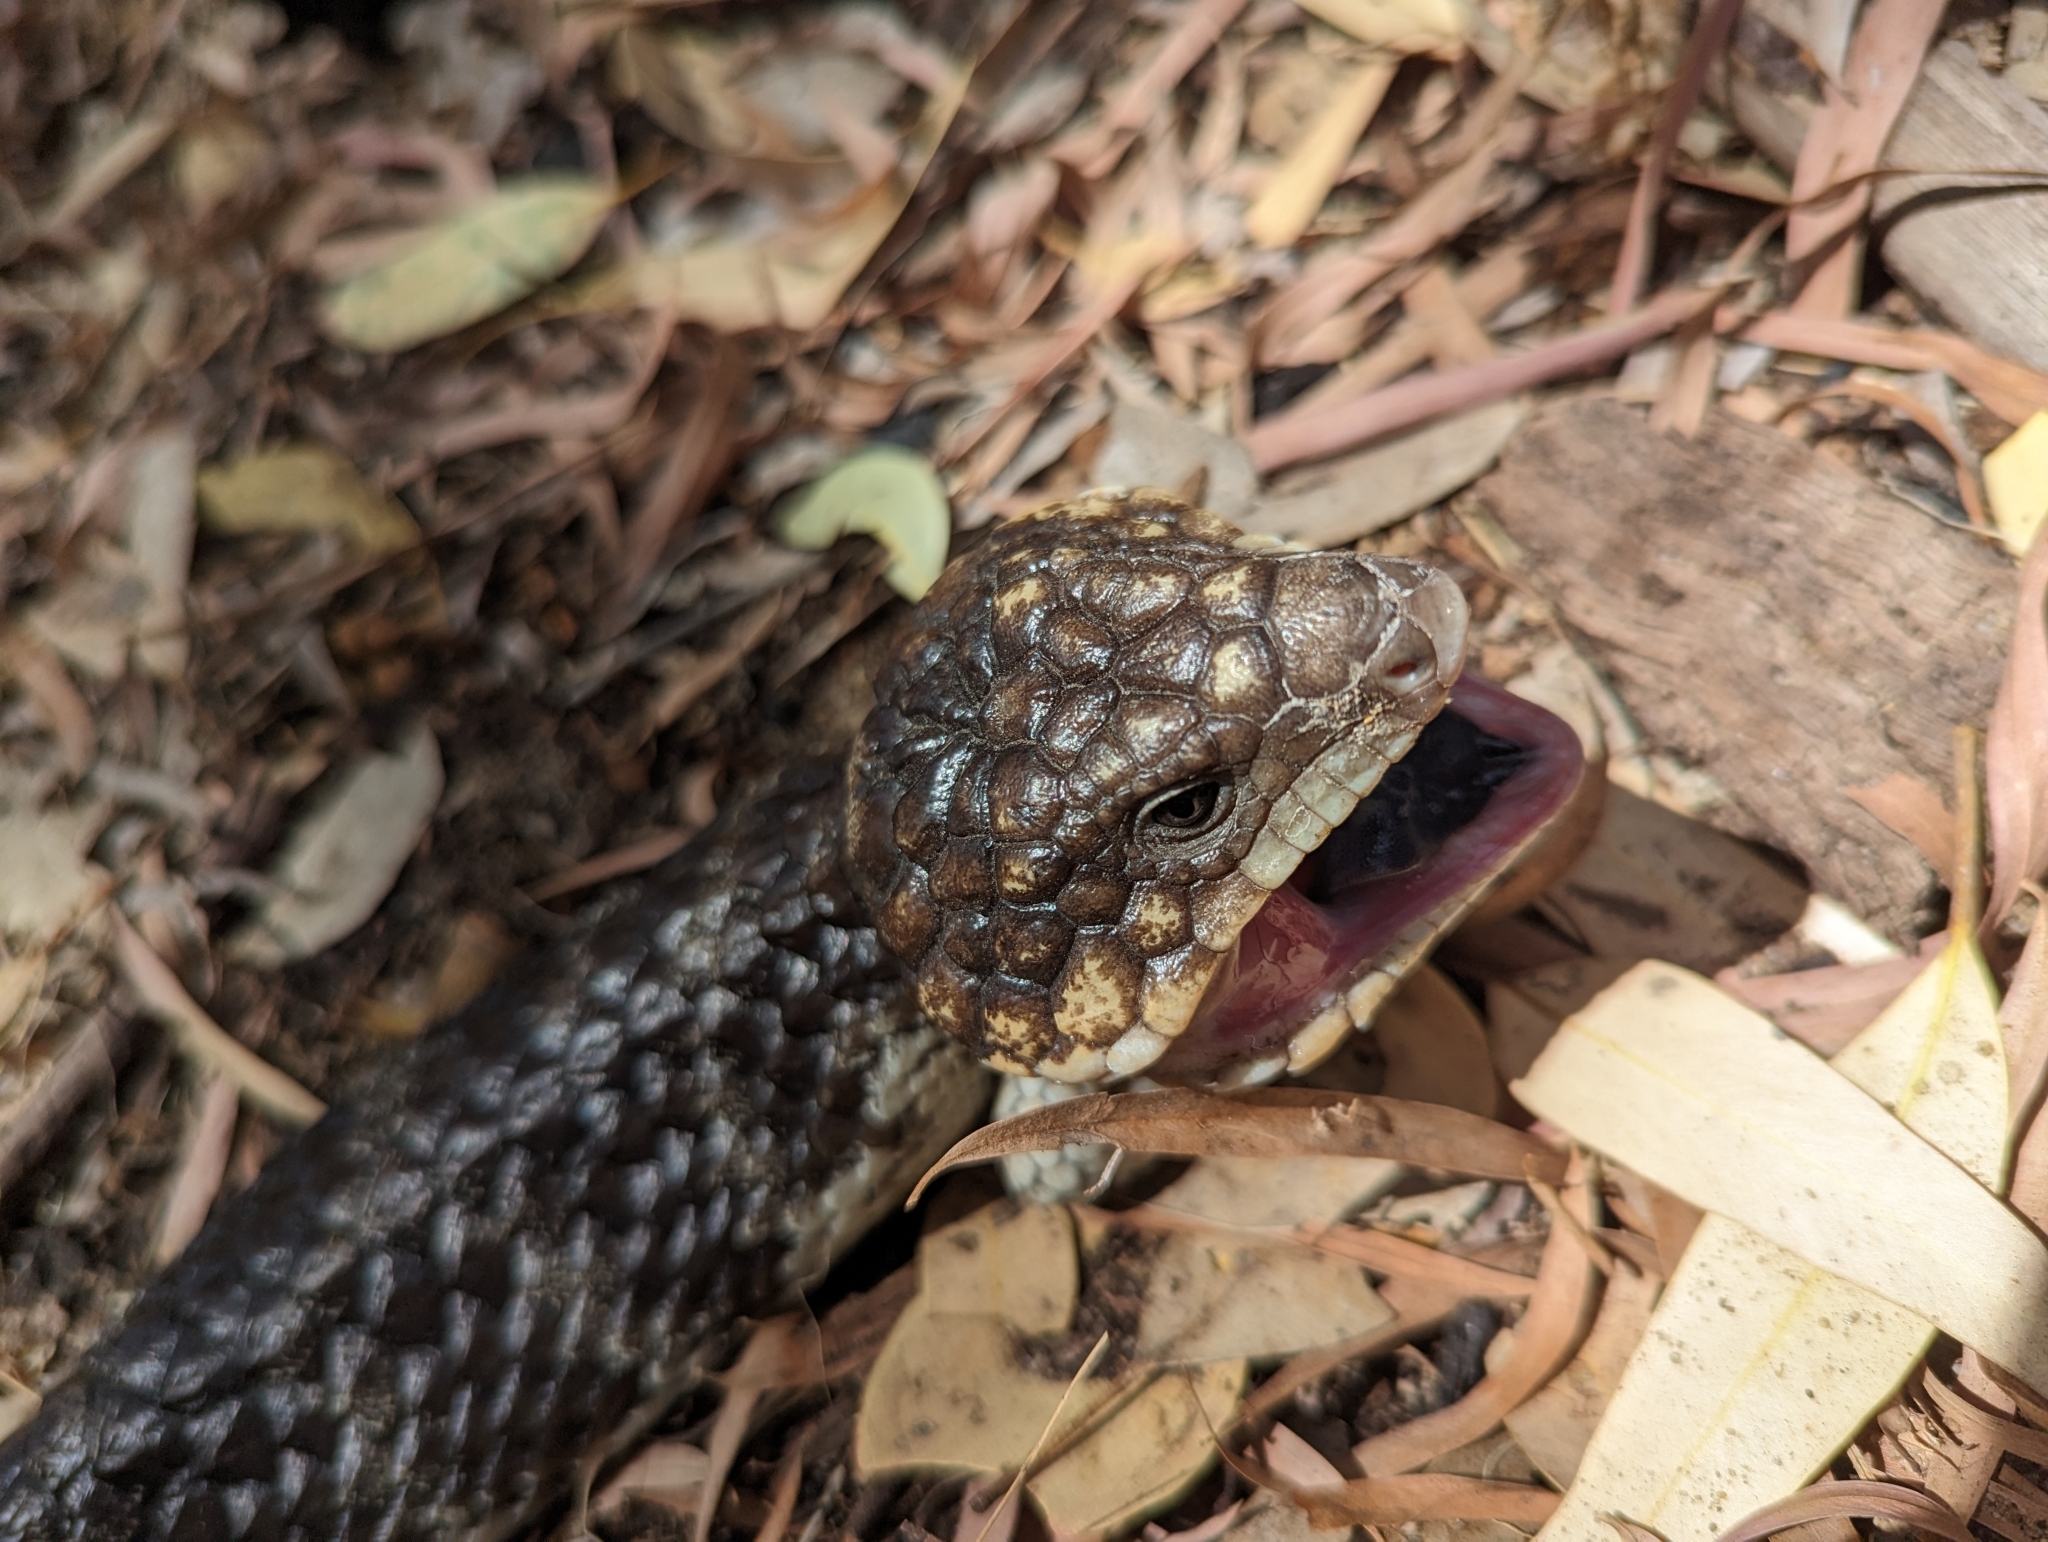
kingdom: Animalia
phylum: Chordata
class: Squamata
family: Scincidae
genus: Tiliqua
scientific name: Tiliqua rugosa
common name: Pinecone lizard
